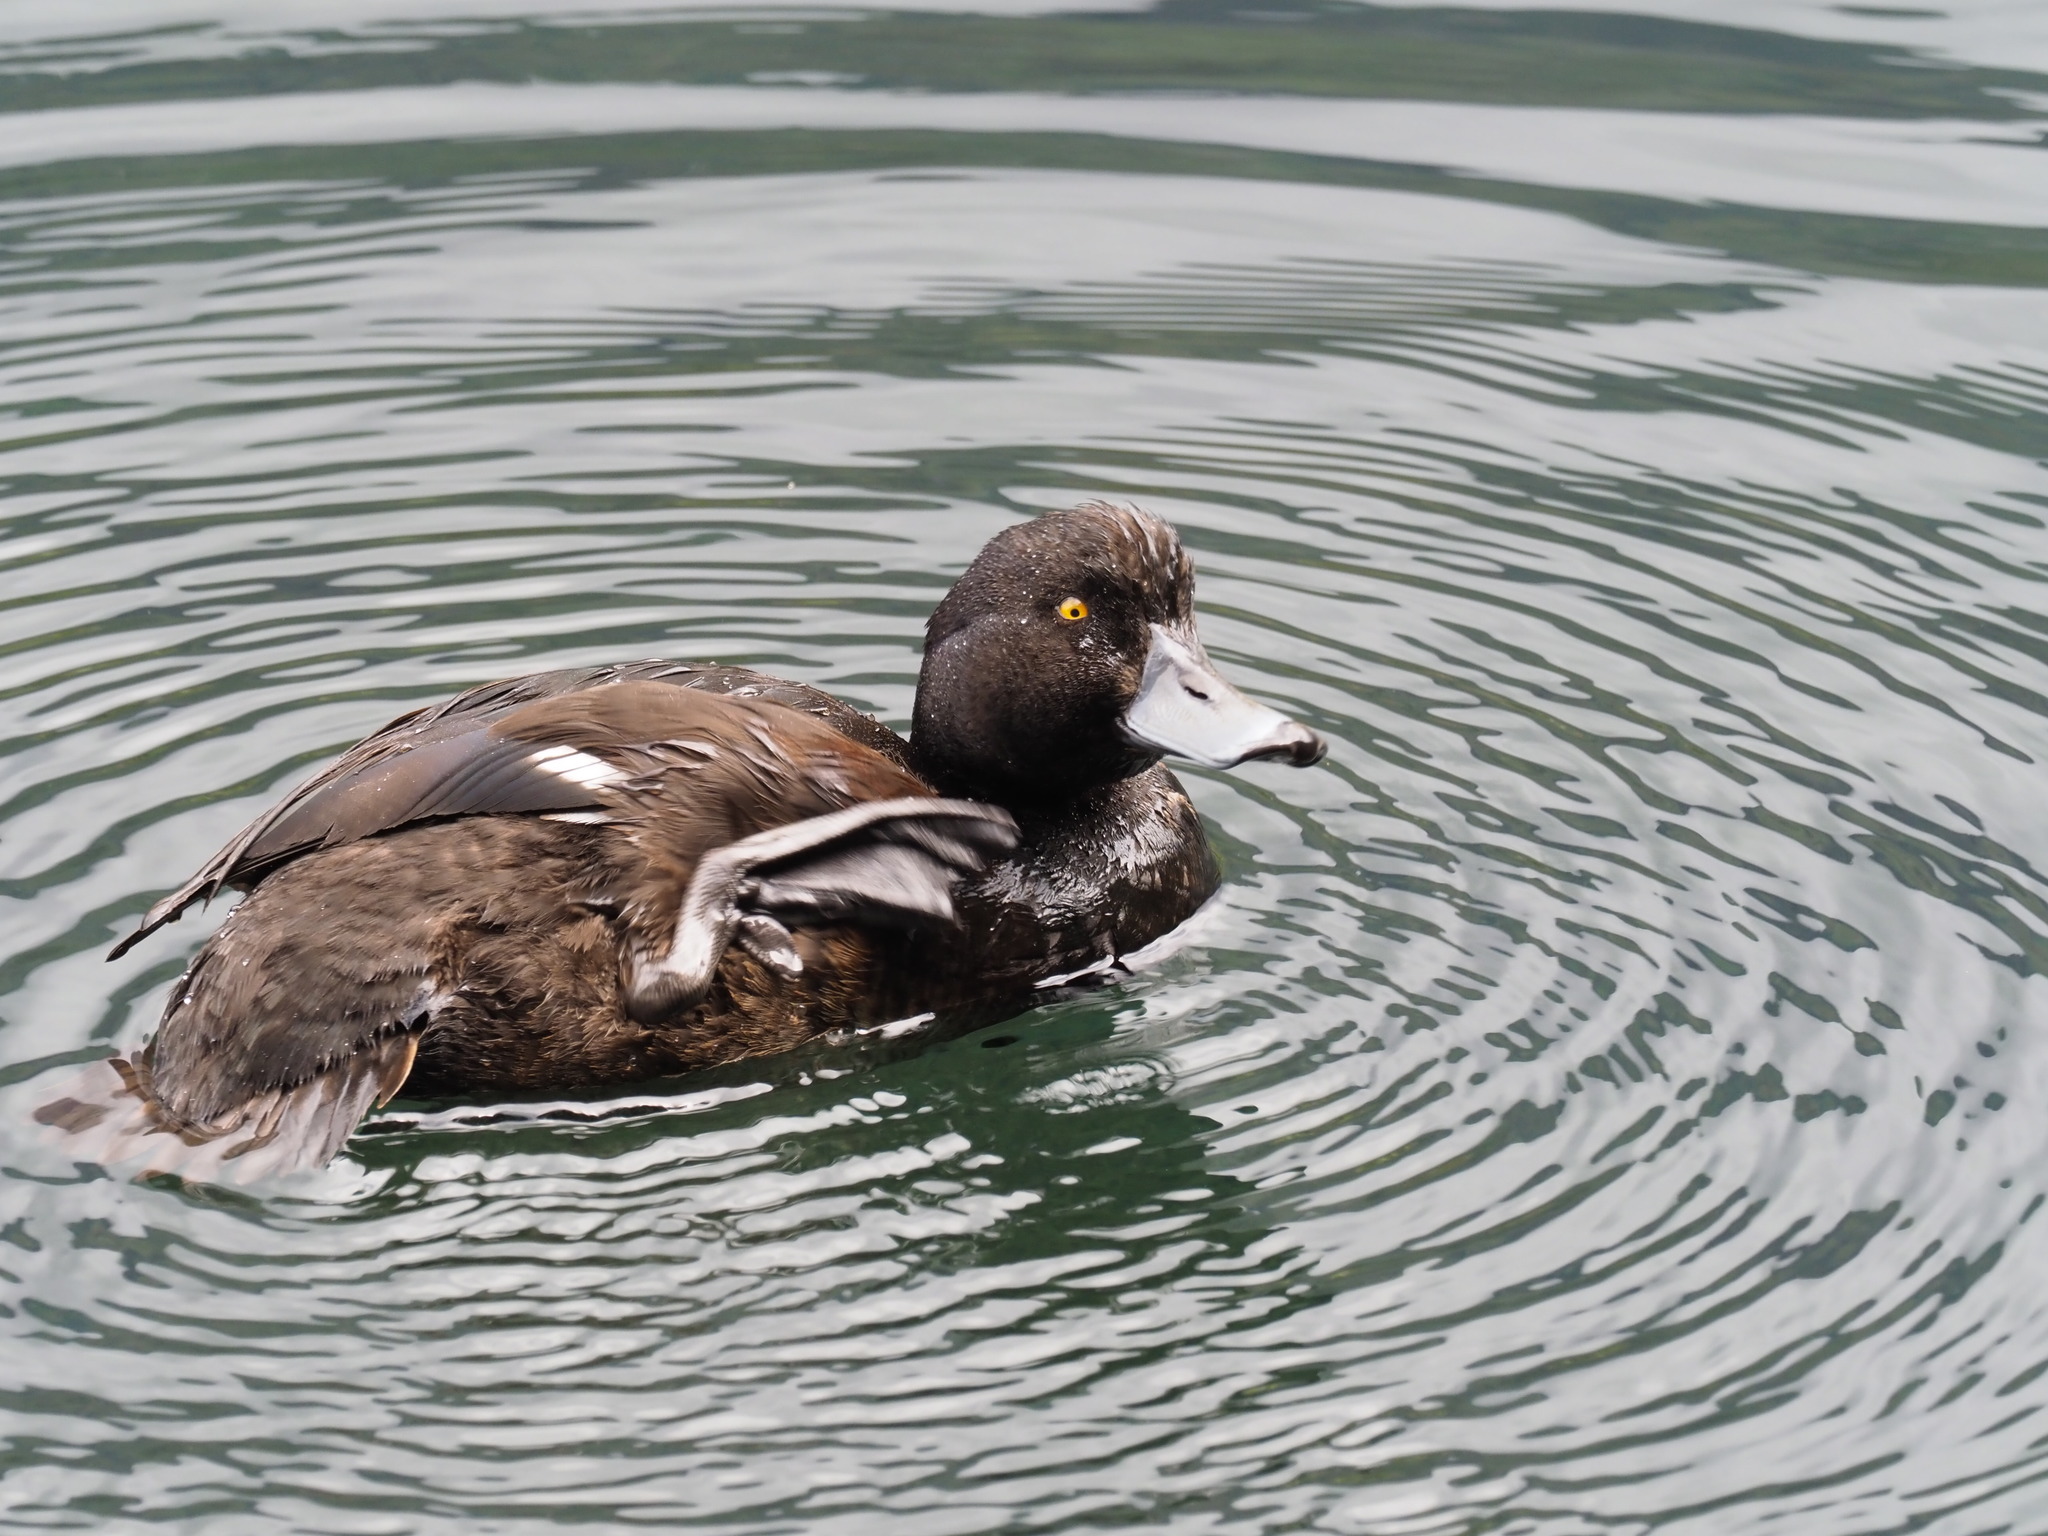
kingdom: Animalia
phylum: Chordata
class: Aves
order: Anseriformes
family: Anatidae
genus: Aythya
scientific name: Aythya novaeseelandiae
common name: New zealand scaup
